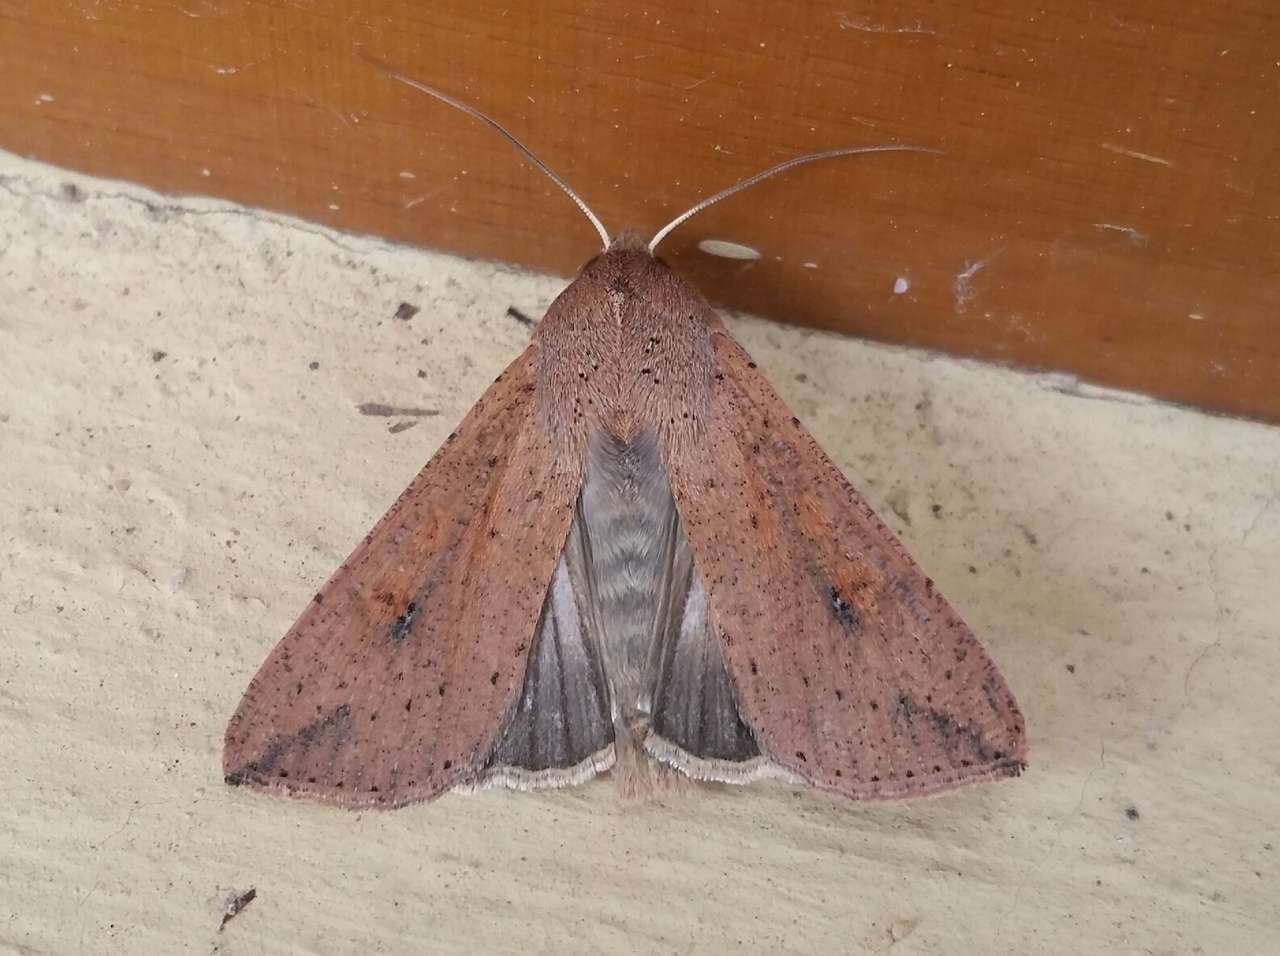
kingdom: Animalia
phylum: Arthropoda
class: Insecta
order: Lepidoptera
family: Noctuidae
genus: Mythimna
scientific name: Mythimna convecta
